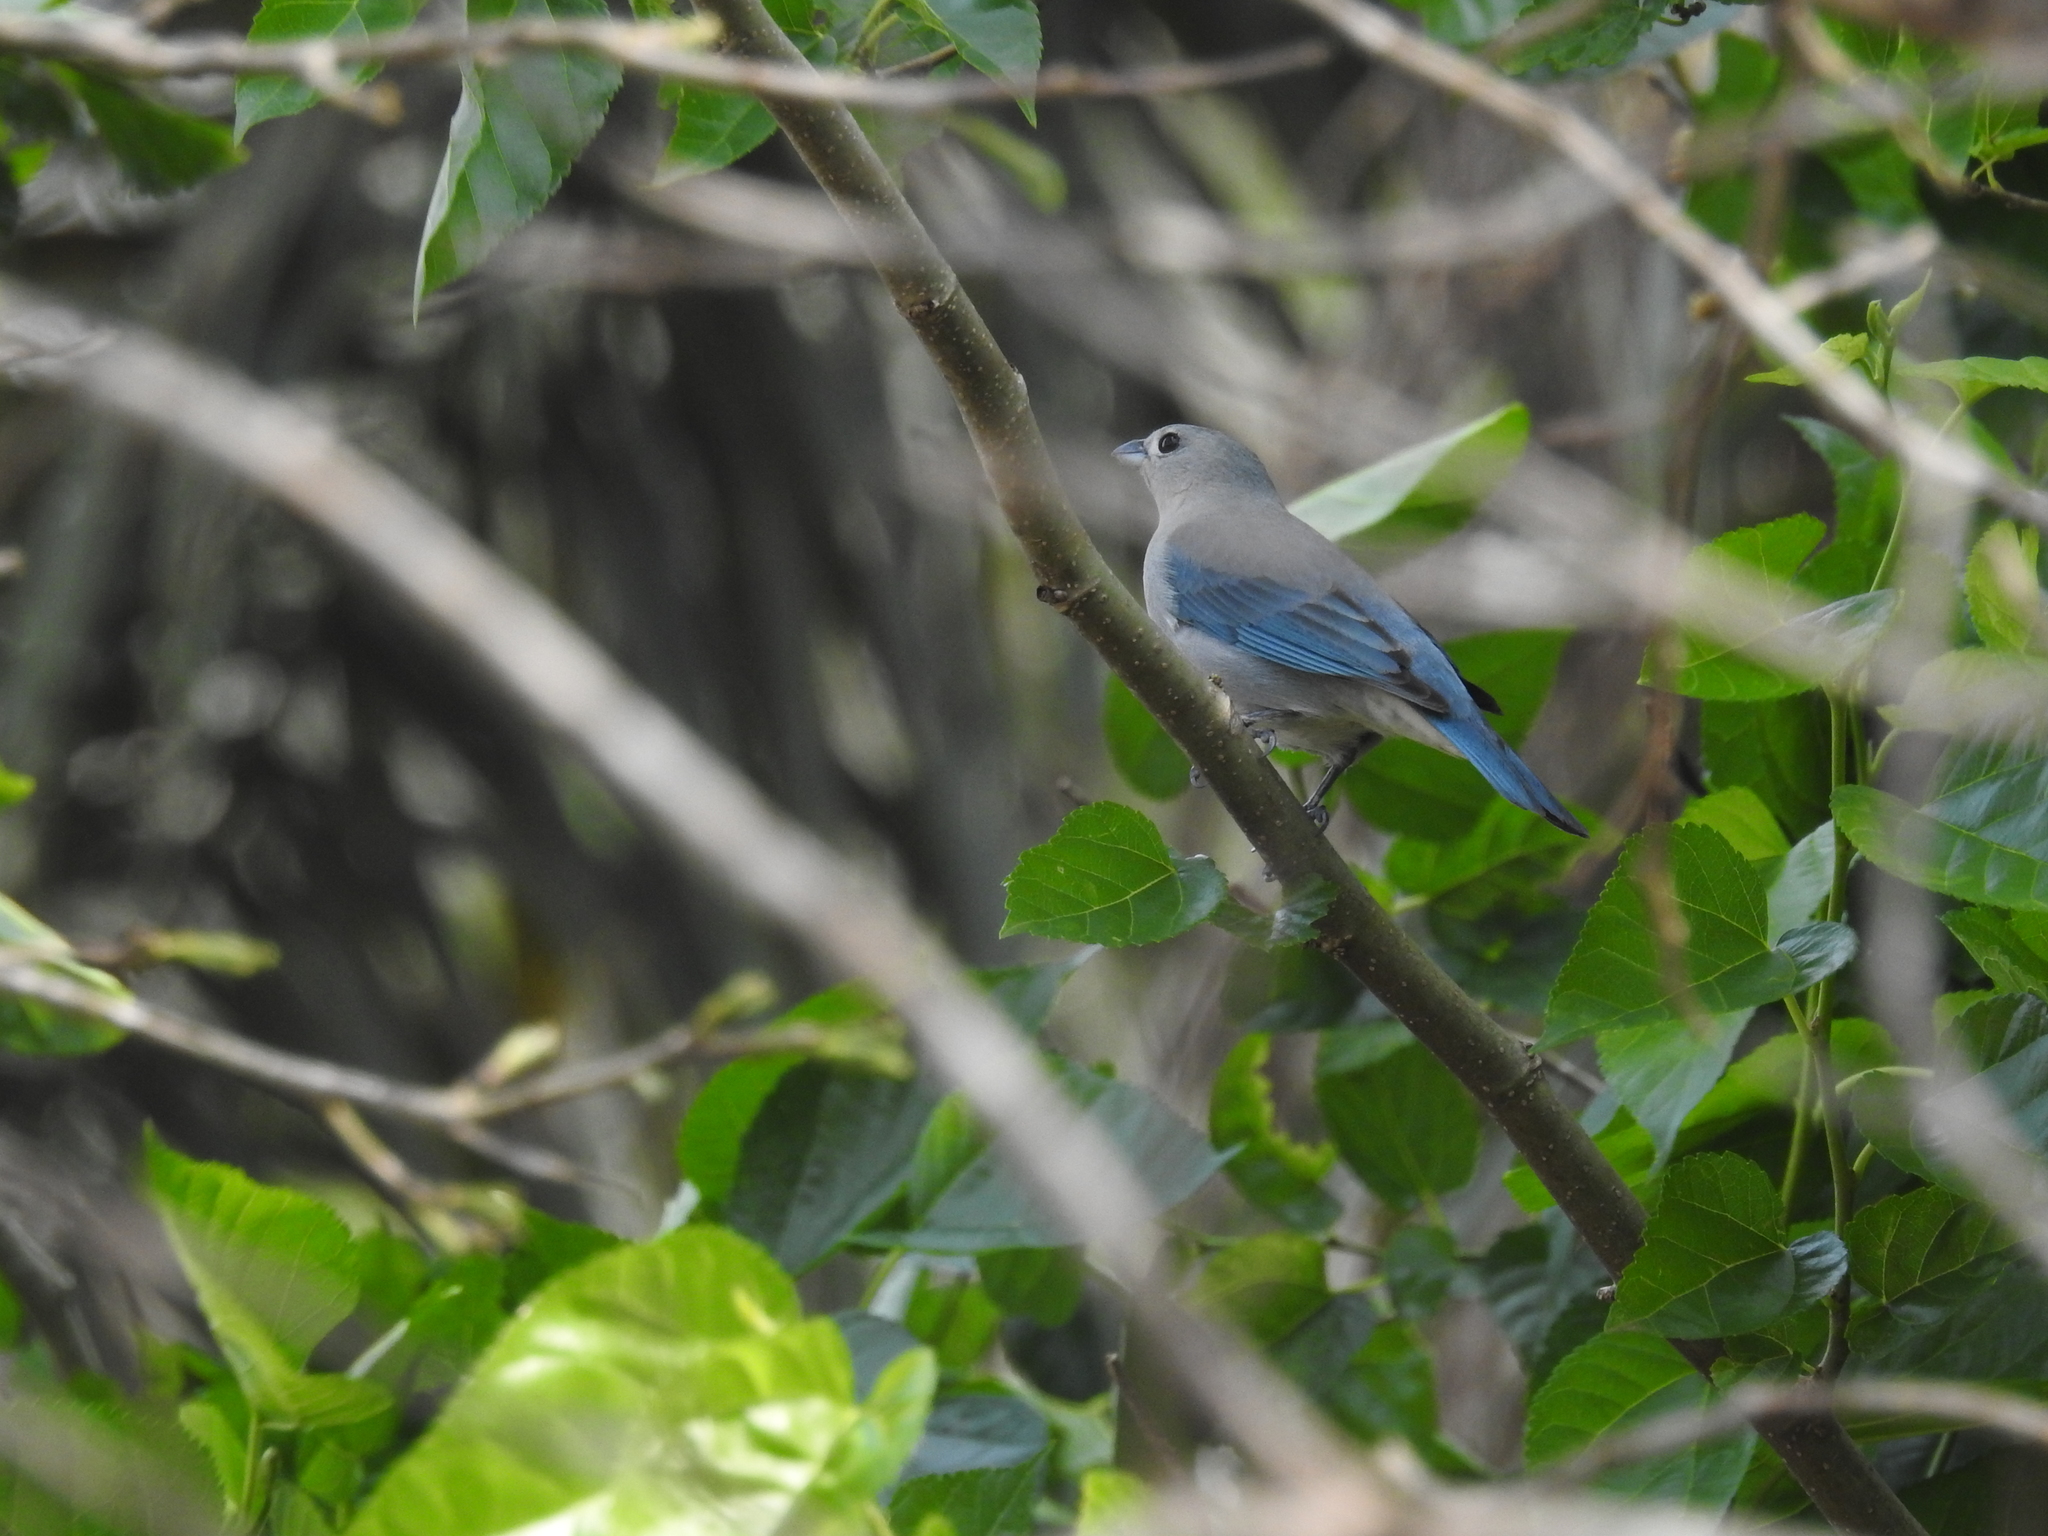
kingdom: Animalia
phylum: Chordata
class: Aves
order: Passeriformes
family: Thraupidae
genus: Thraupis
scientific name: Thraupis sayaca
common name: Sayaca tanager
